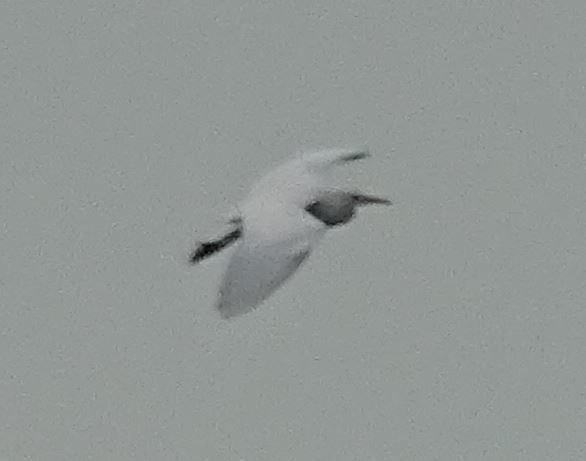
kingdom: Animalia
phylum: Chordata
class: Aves
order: Pelecaniformes
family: Ardeidae
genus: Bubulcus
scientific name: Bubulcus ibis
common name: Cattle egret
